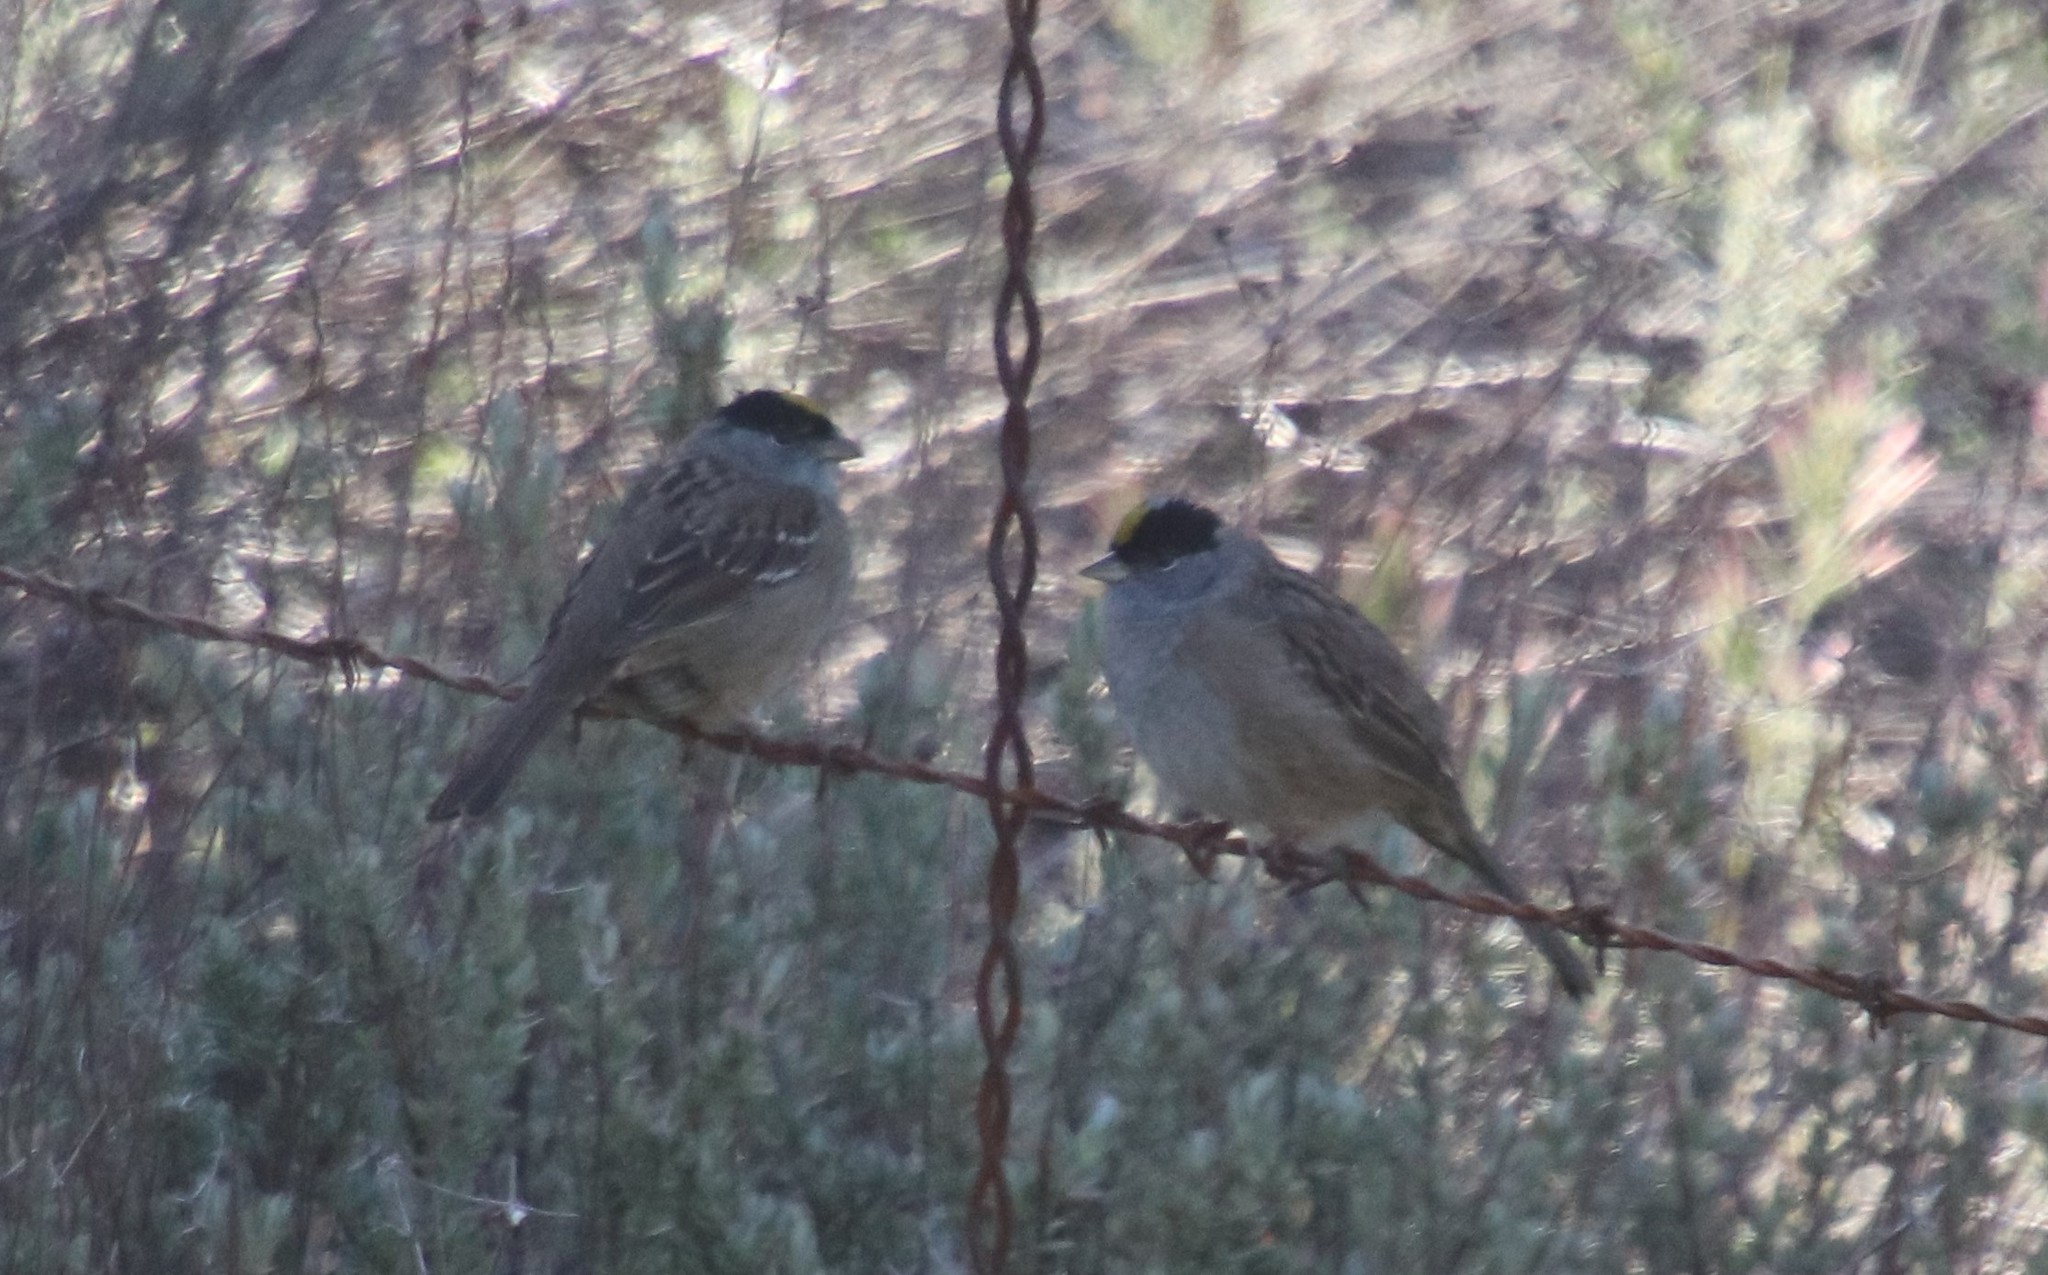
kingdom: Animalia
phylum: Chordata
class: Aves
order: Passeriformes
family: Passerellidae
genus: Zonotrichia
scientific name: Zonotrichia atricapilla
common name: Golden-crowned sparrow
